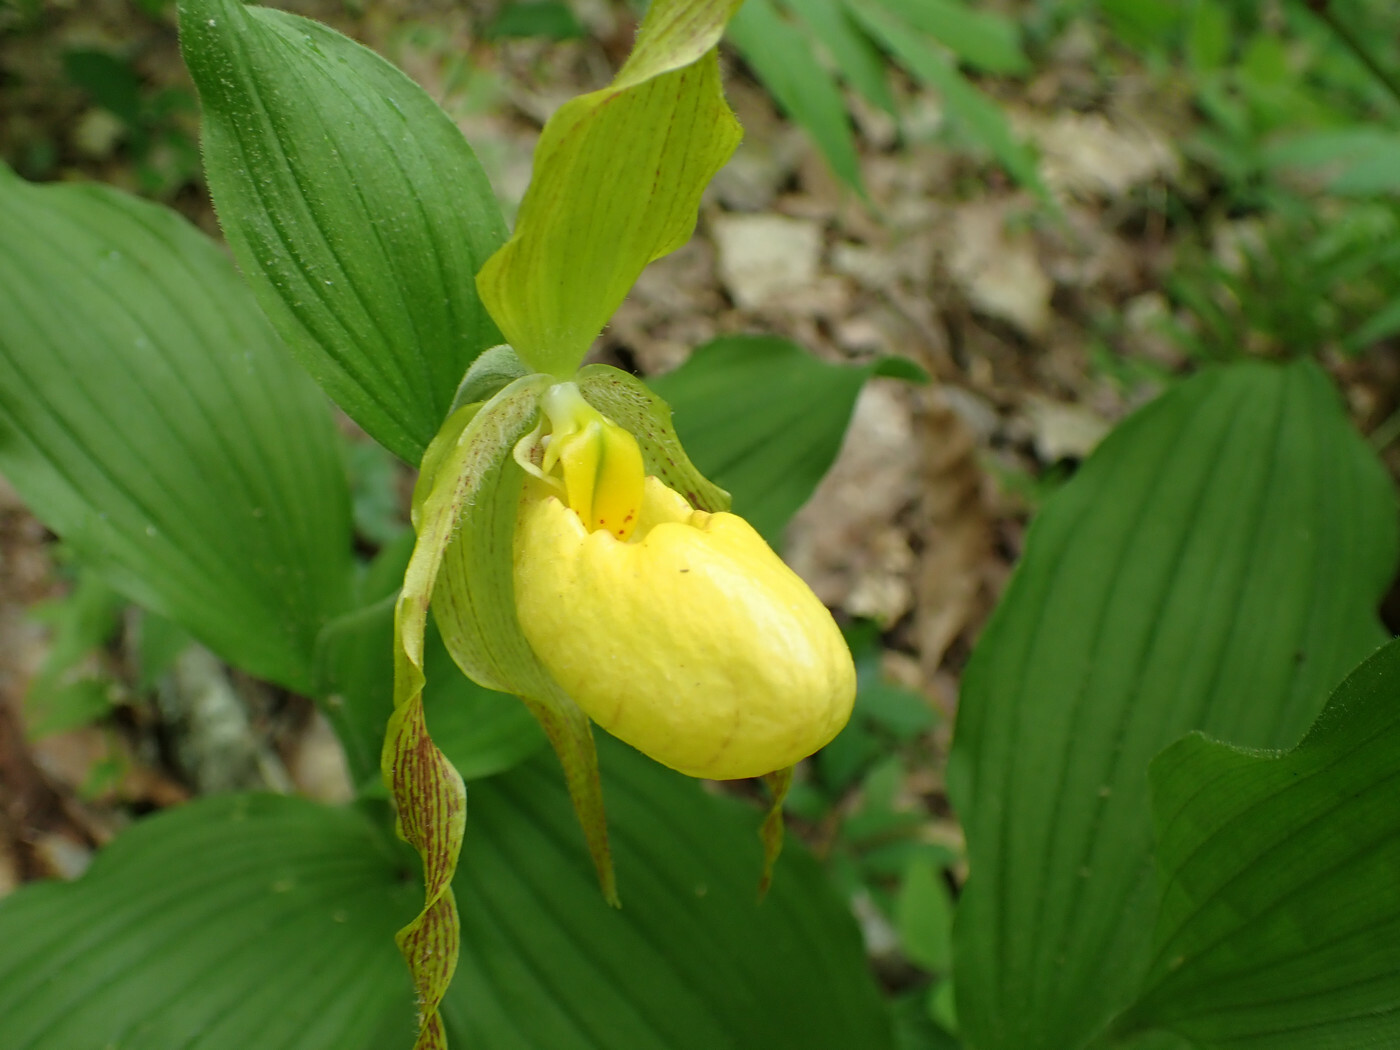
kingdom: Plantae
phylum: Tracheophyta
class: Liliopsida
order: Asparagales
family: Orchidaceae
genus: Cypripedium
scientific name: Cypripedium parviflorum
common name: American yellow lady's-slipper
